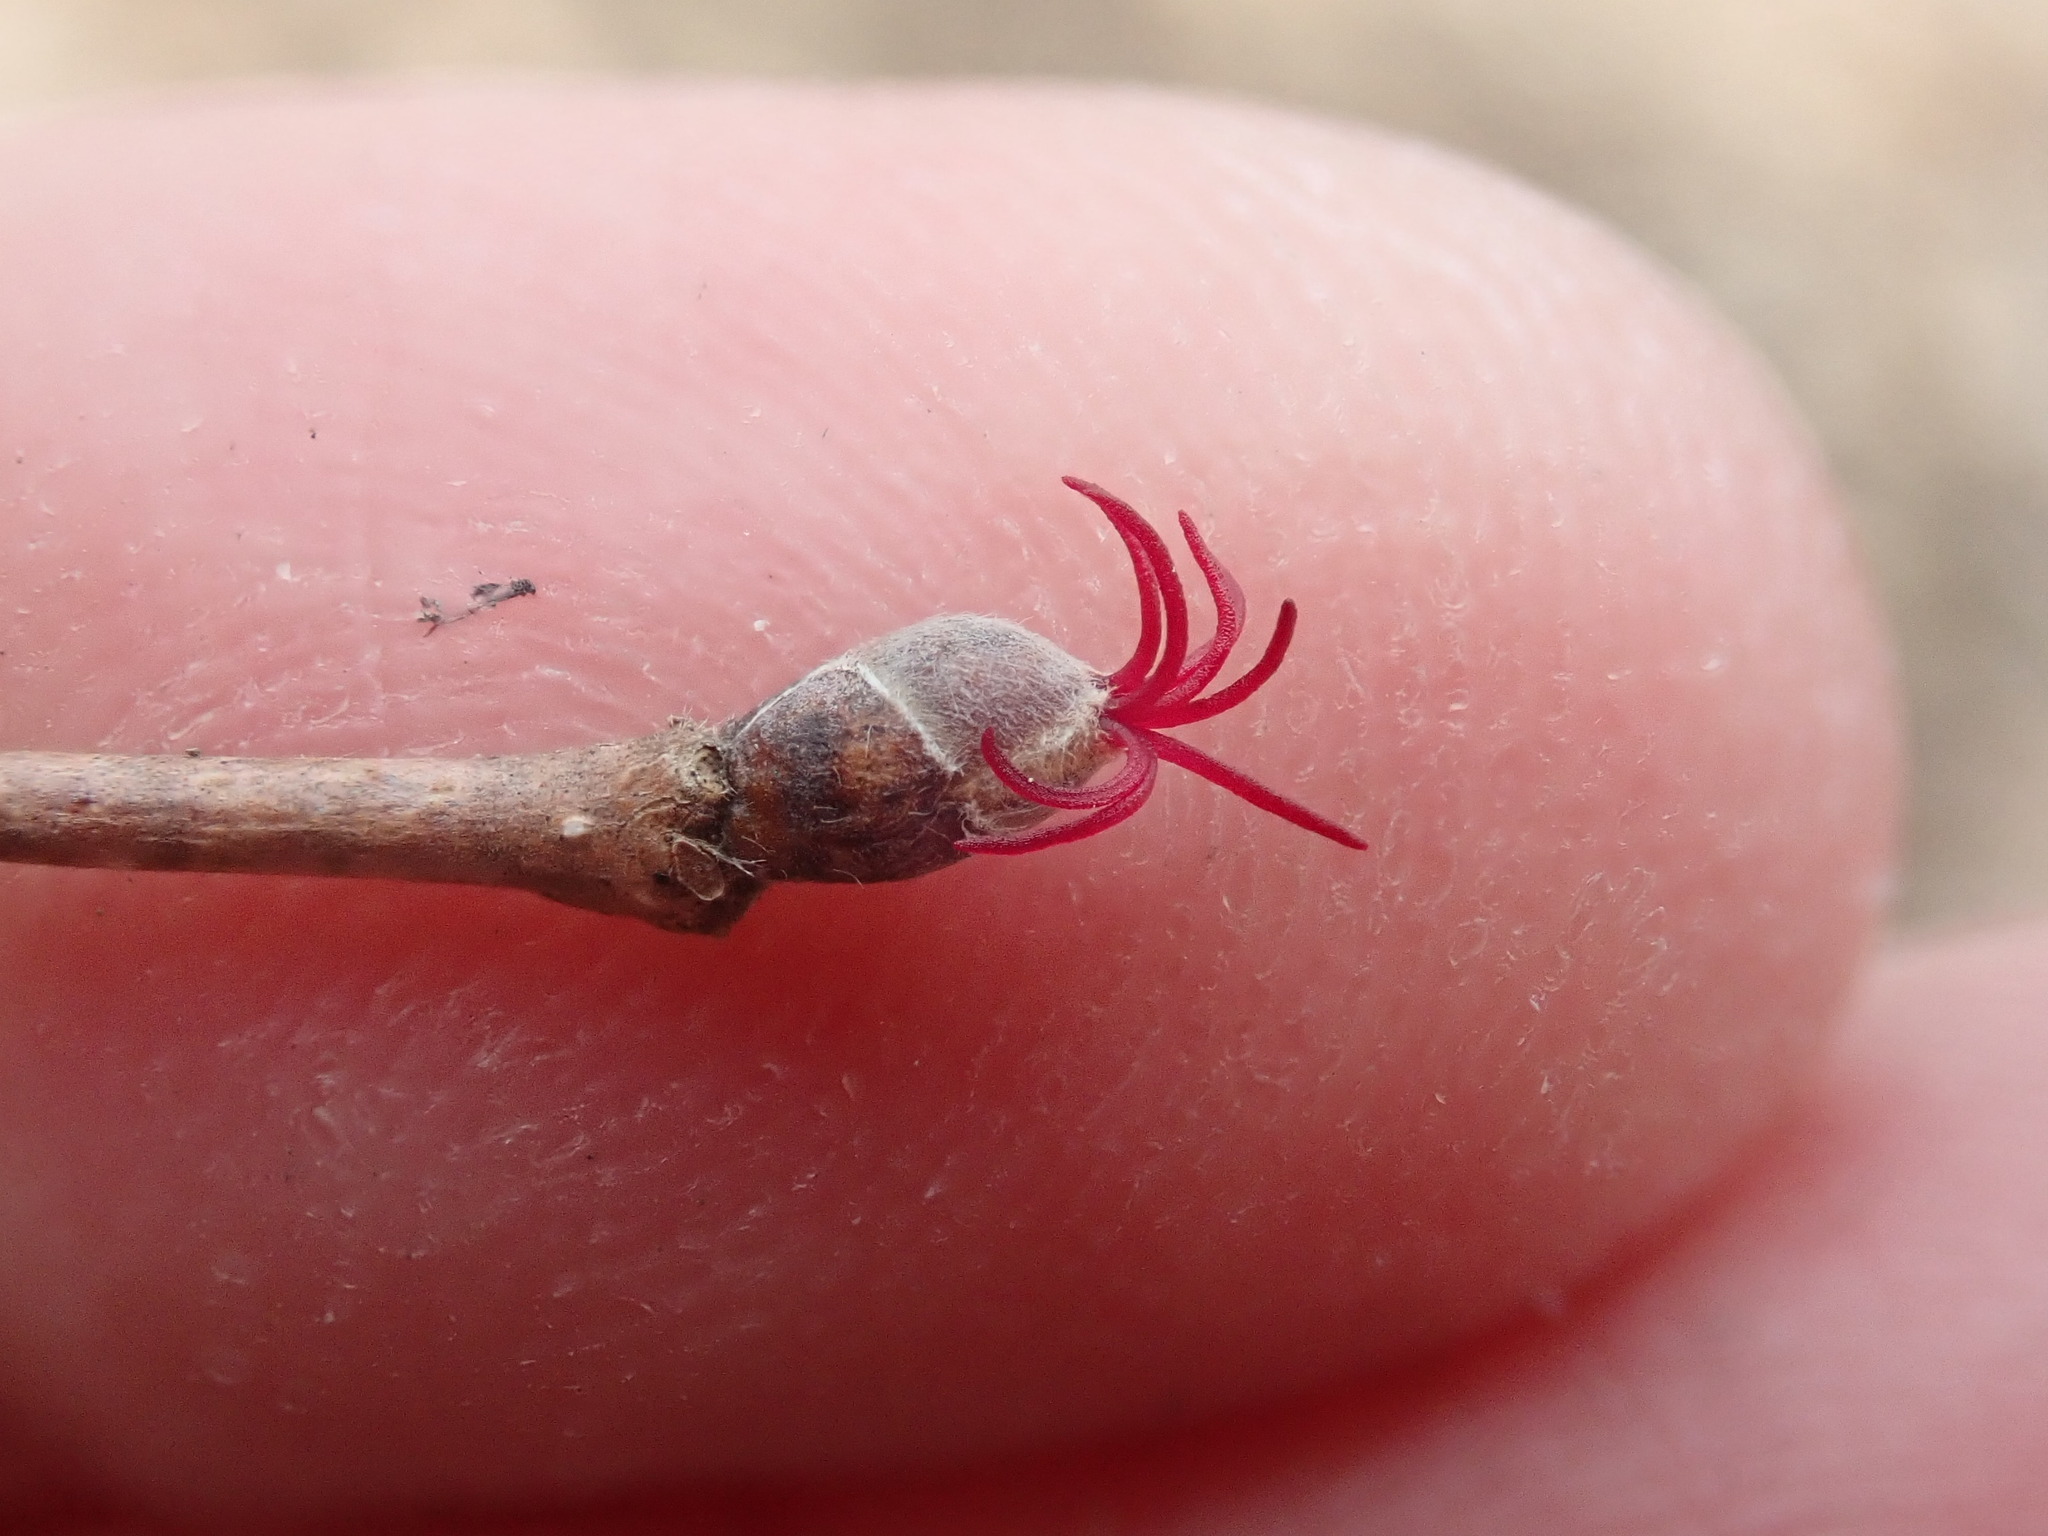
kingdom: Plantae
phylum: Tracheophyta
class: Magnoliopsida
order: Fagales
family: Betulaceae
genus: Corylus
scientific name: Corylus cornuta
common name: Beaked hazel
